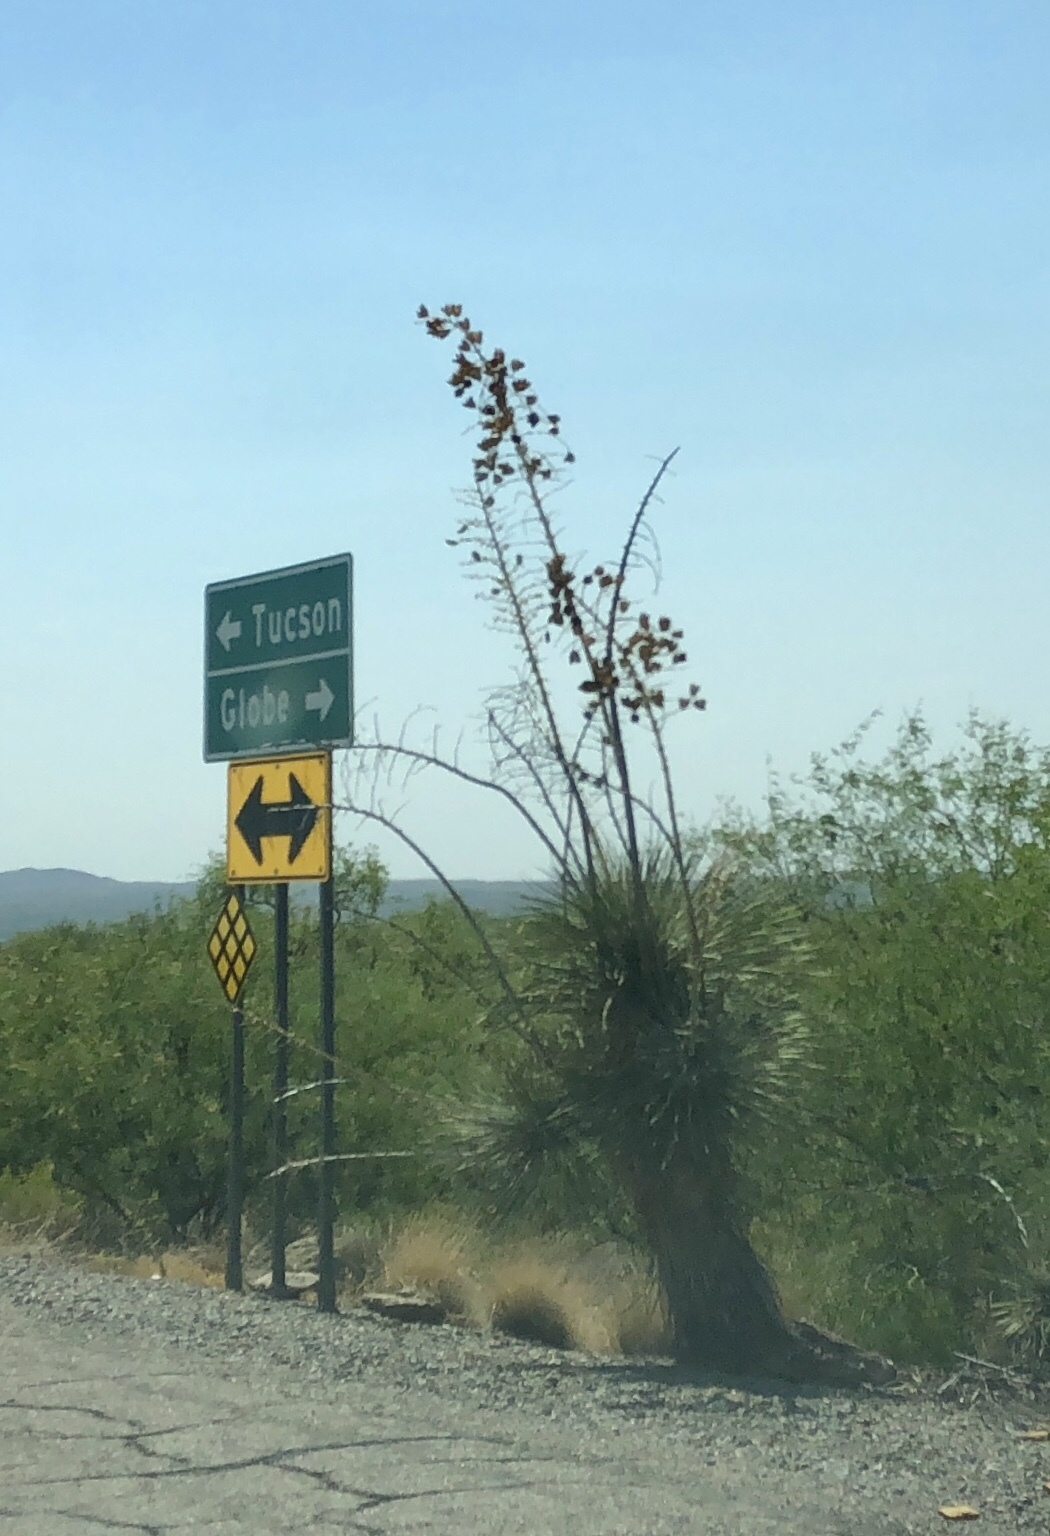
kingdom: Plantae
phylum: Tracheophyta
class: Liliopsida
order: Asparagales
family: Asparagaceae
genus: Yucca
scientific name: Yucca elata
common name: Palmella
